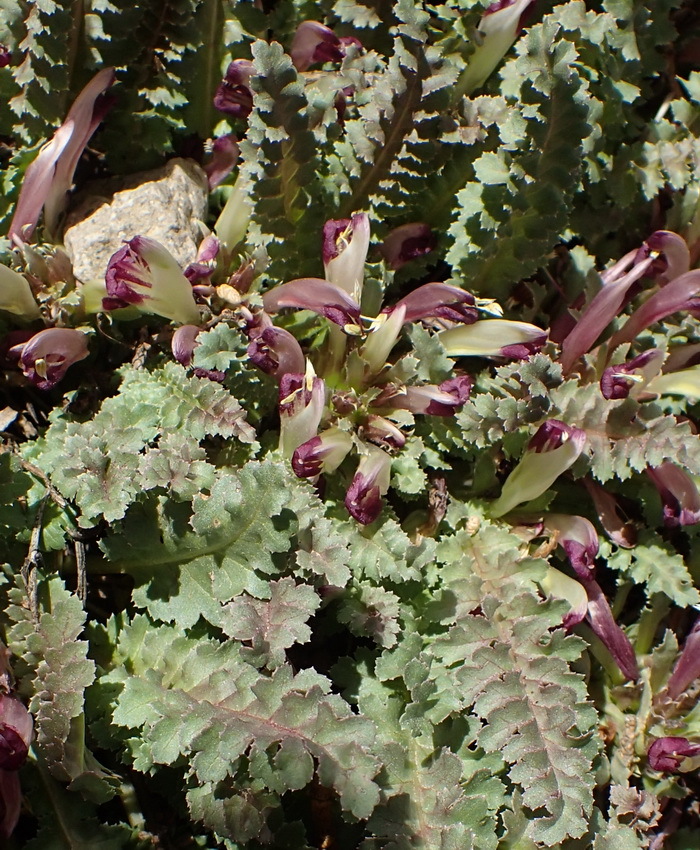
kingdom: Plantae
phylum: Tracheophyta
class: Magnoliopsida
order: Lamiales
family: Orobanchaceae
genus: Pedicularis
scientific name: Pedicularis centranthera
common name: Dwarf lousewort
